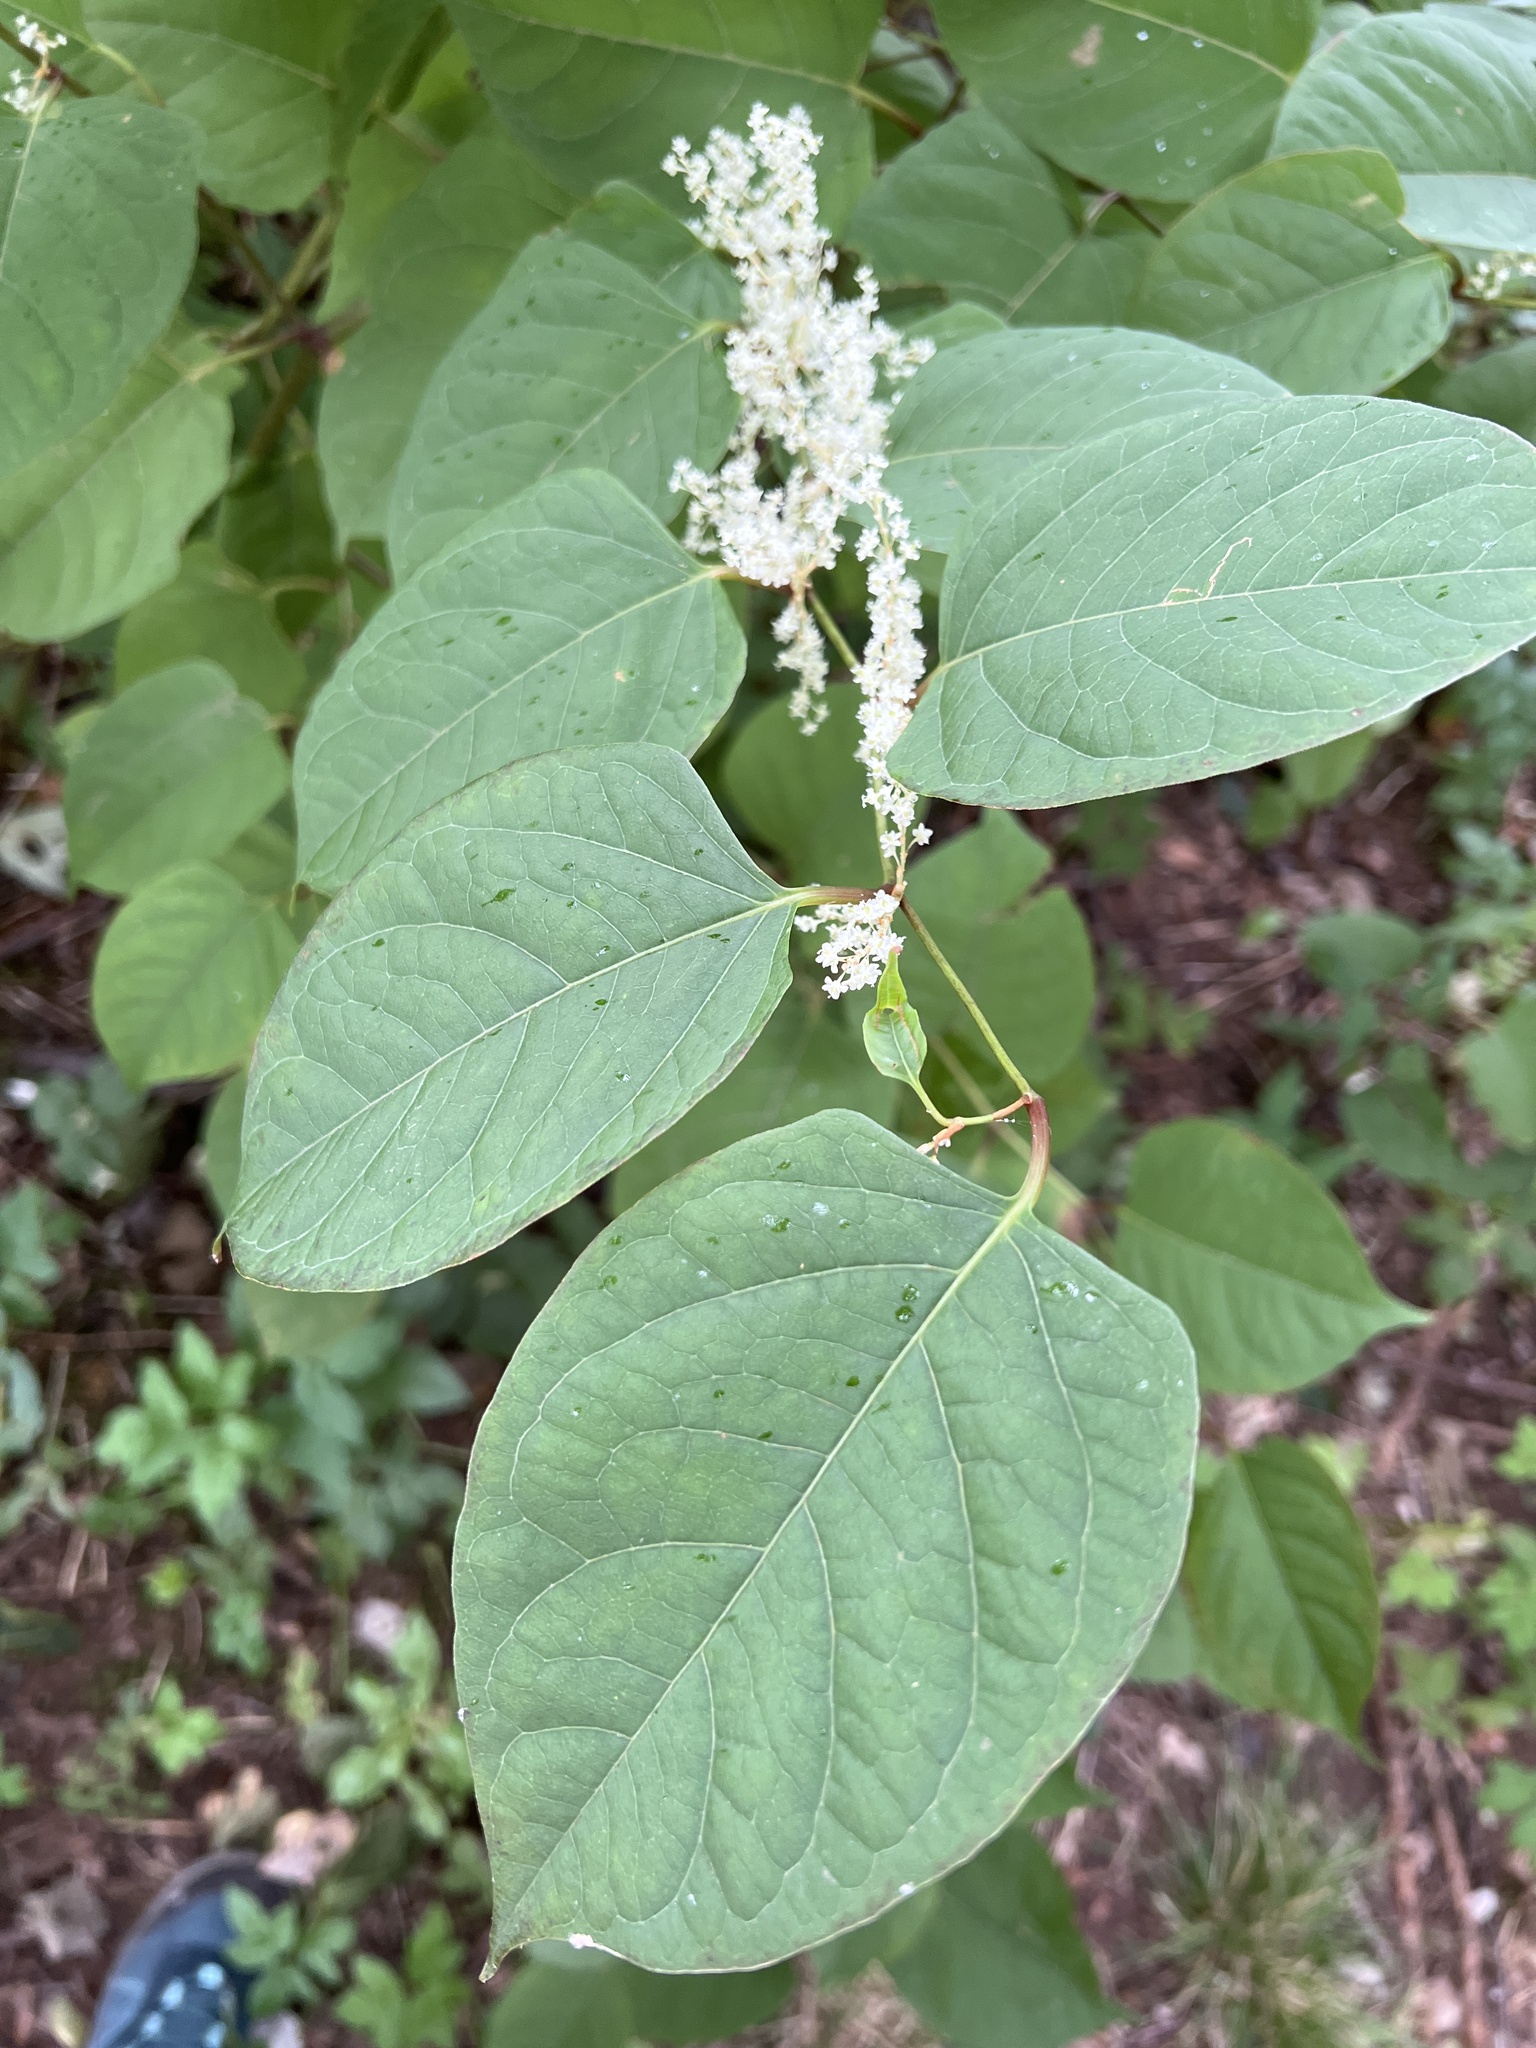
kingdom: Plantae
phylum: Tracheophyta
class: Magnoliopsida
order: Caryophyllales
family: Polygonaceae
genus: Reynoutria
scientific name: Reynoutria japonica
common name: Japanese knotweed
